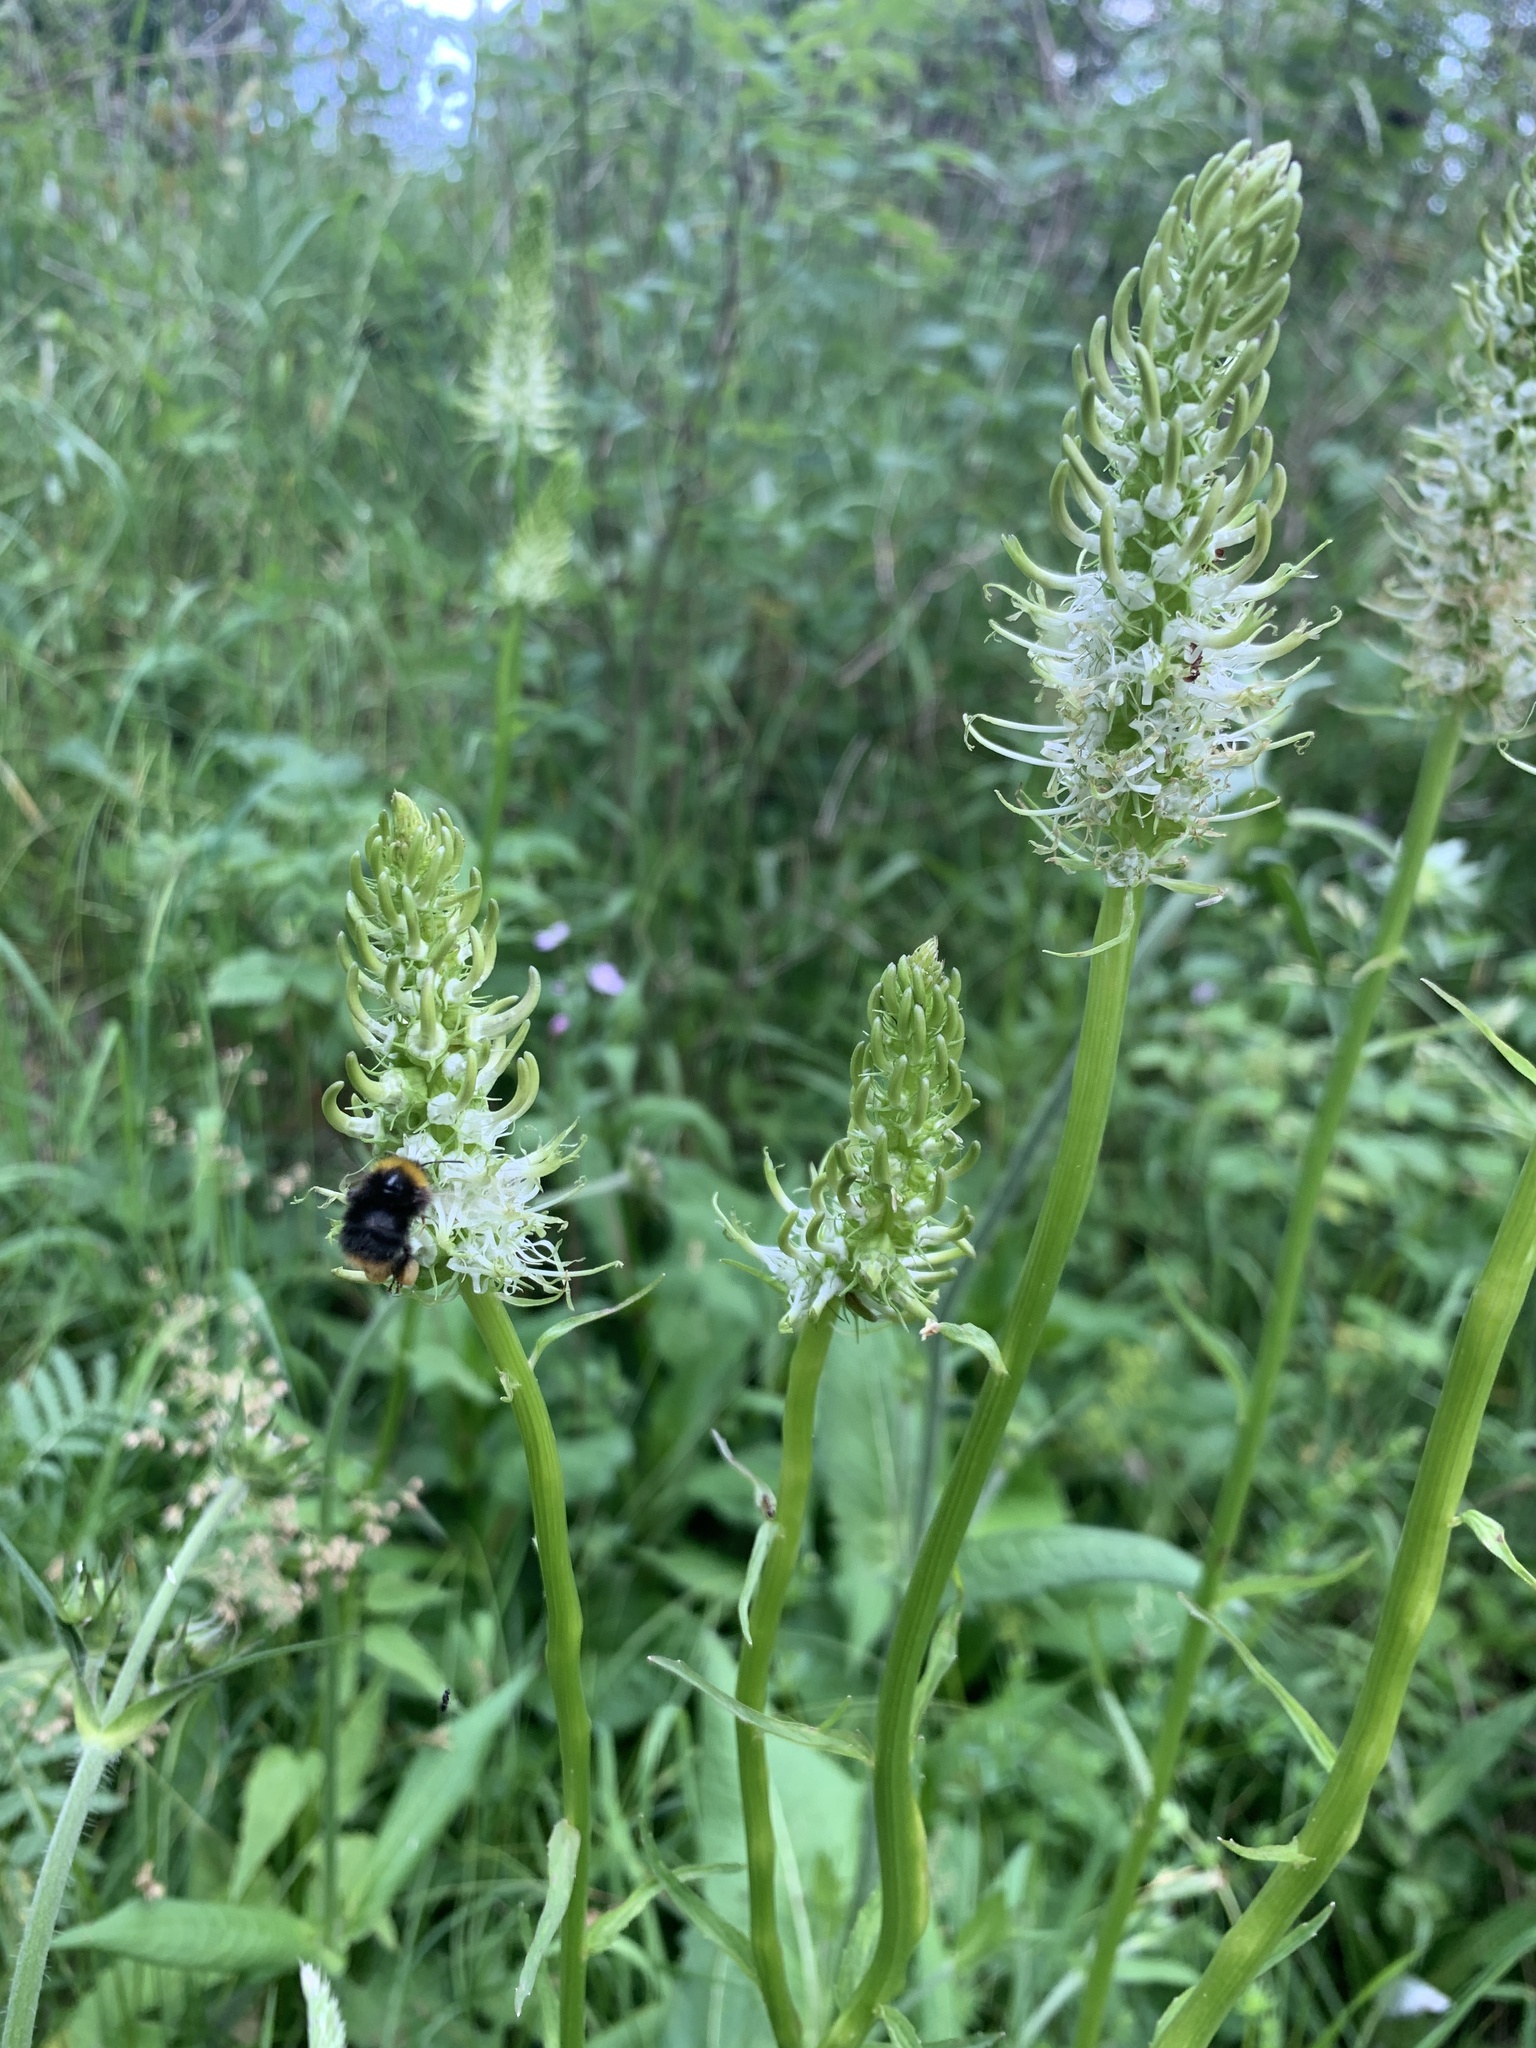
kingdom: Plantae
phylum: Tracheophyta
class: Magnoliopsida
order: Asterales
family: Campanulaceae
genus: Phyteuma
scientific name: Phyteuma spicatum
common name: Spiked rampion
